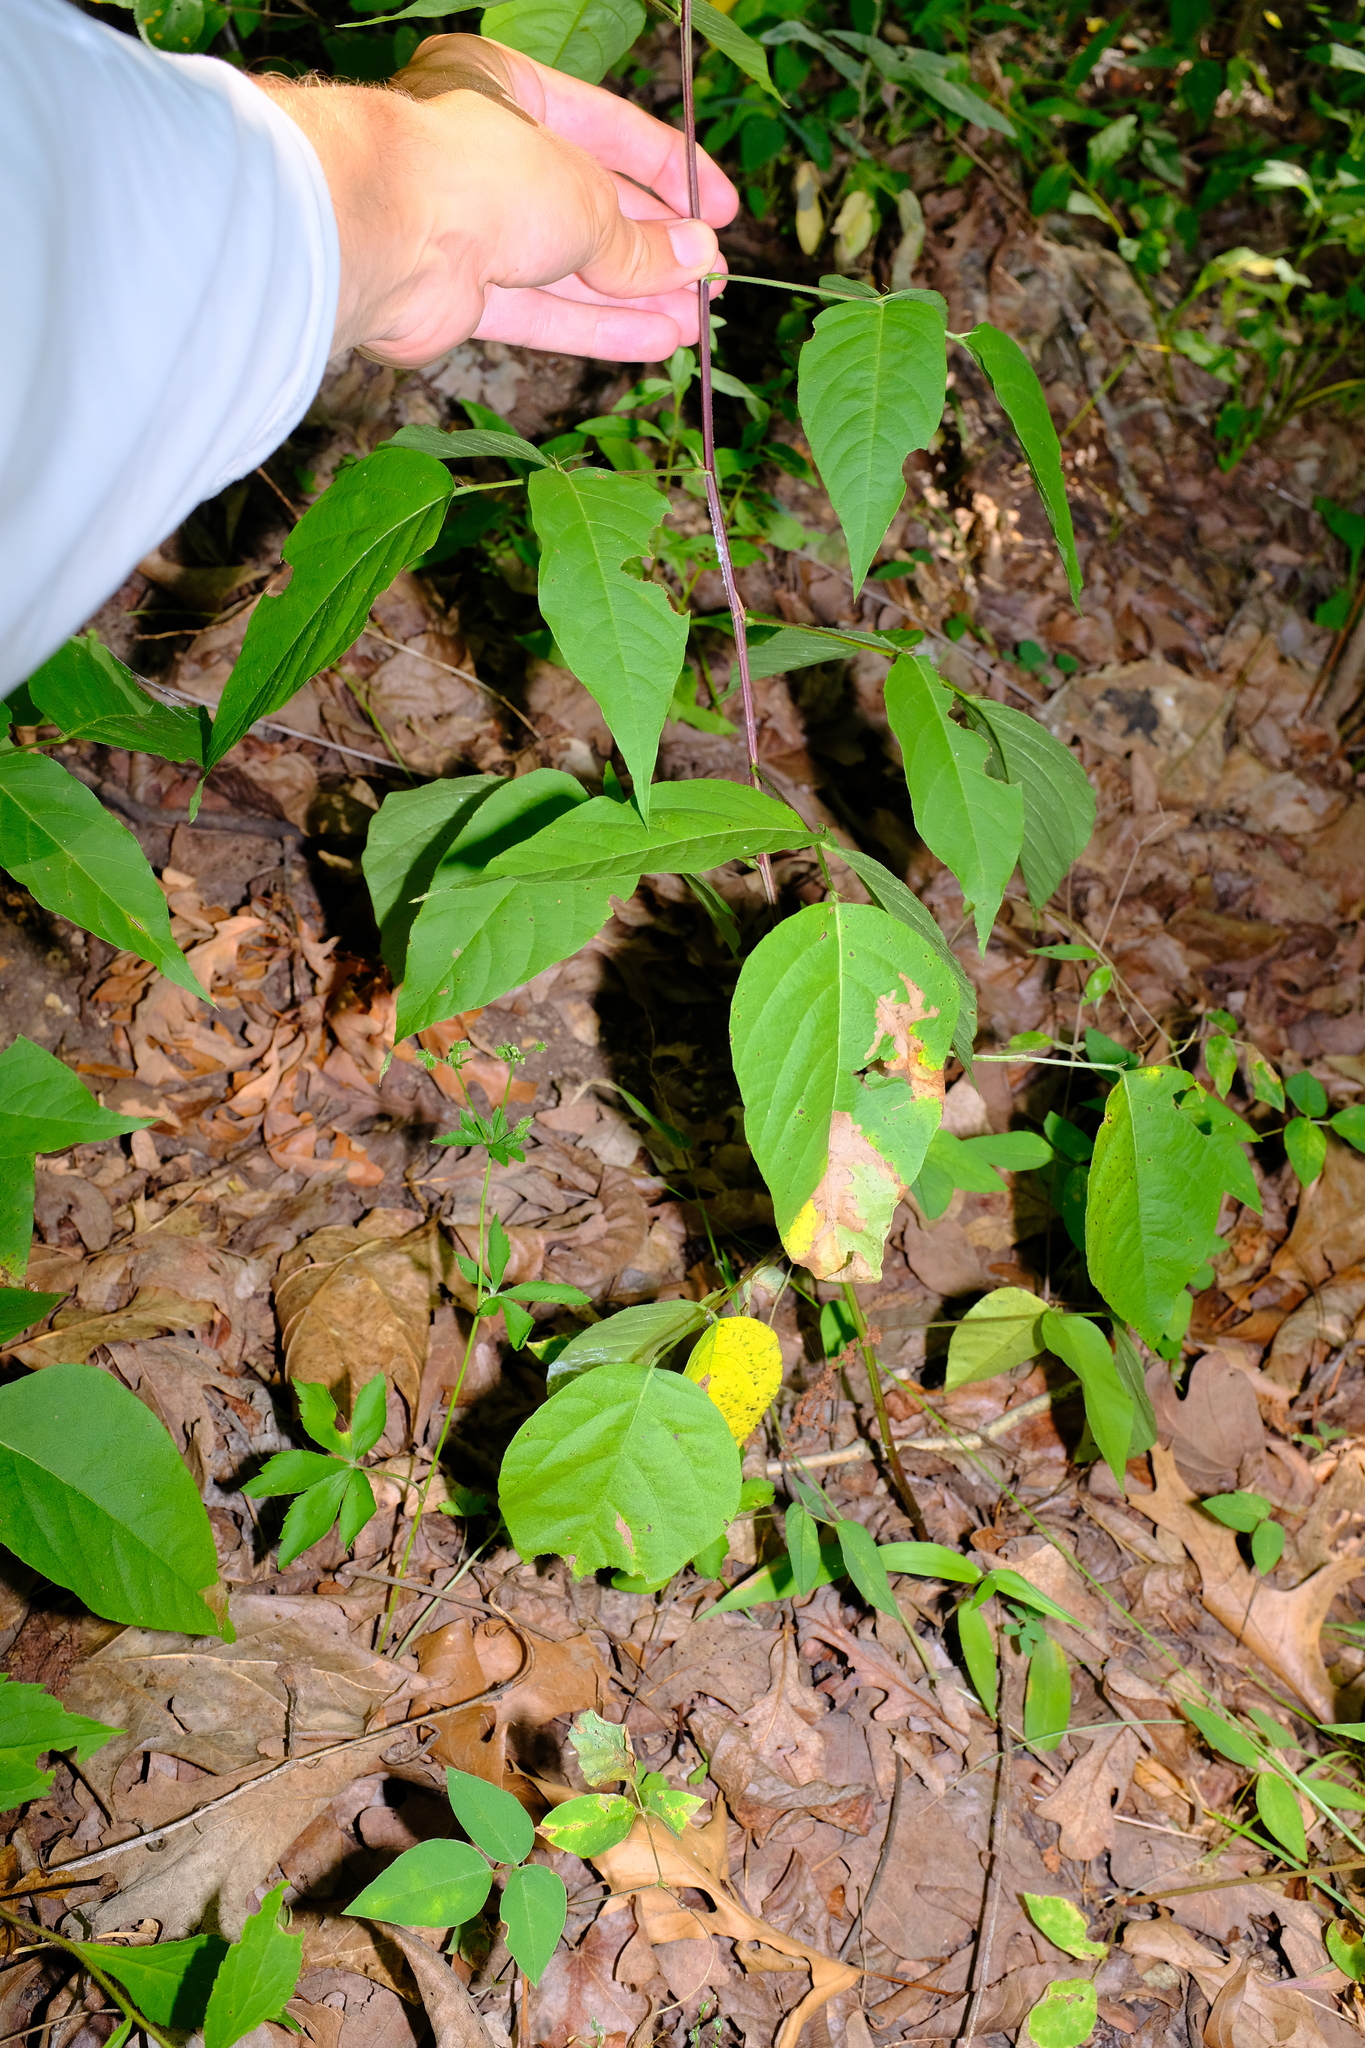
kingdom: Plantae
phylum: Tracheophyta
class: Magnoliopsida
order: Fabales
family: Fabaceae
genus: Desmodium
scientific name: Desmodium cuspidatum
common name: Big tick trefoil
